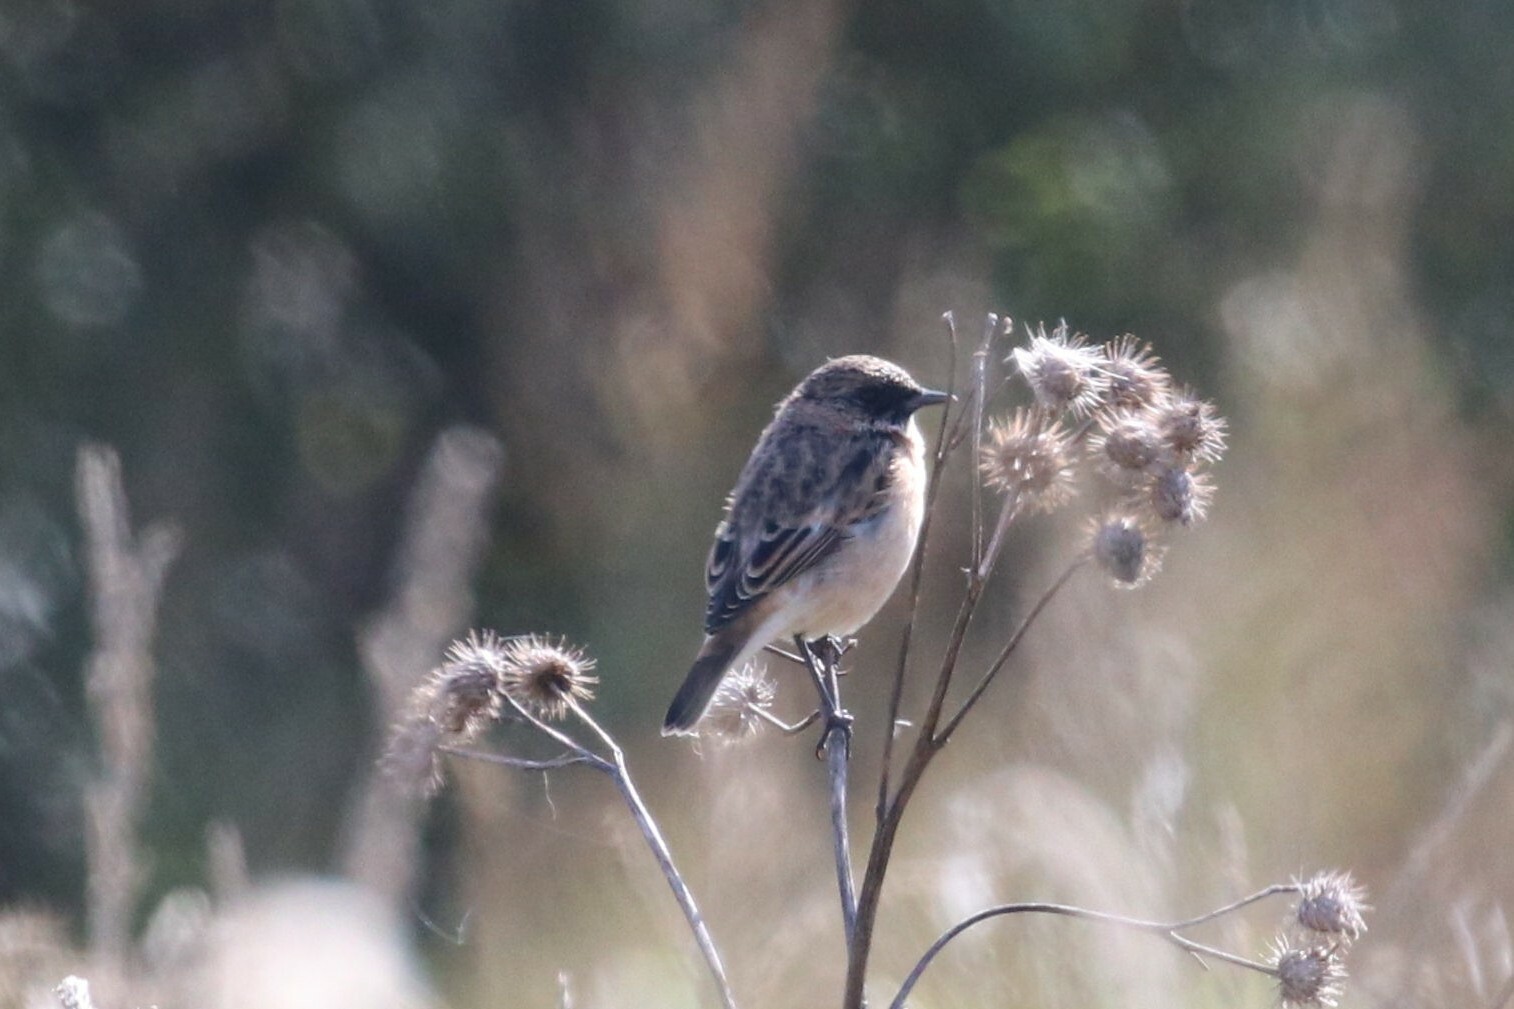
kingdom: Animalia
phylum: Chordata
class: Aves
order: Passeriformes
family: Muscicapidae
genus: Saxicola
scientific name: Saxicola maurus
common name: Siberian stonechat
